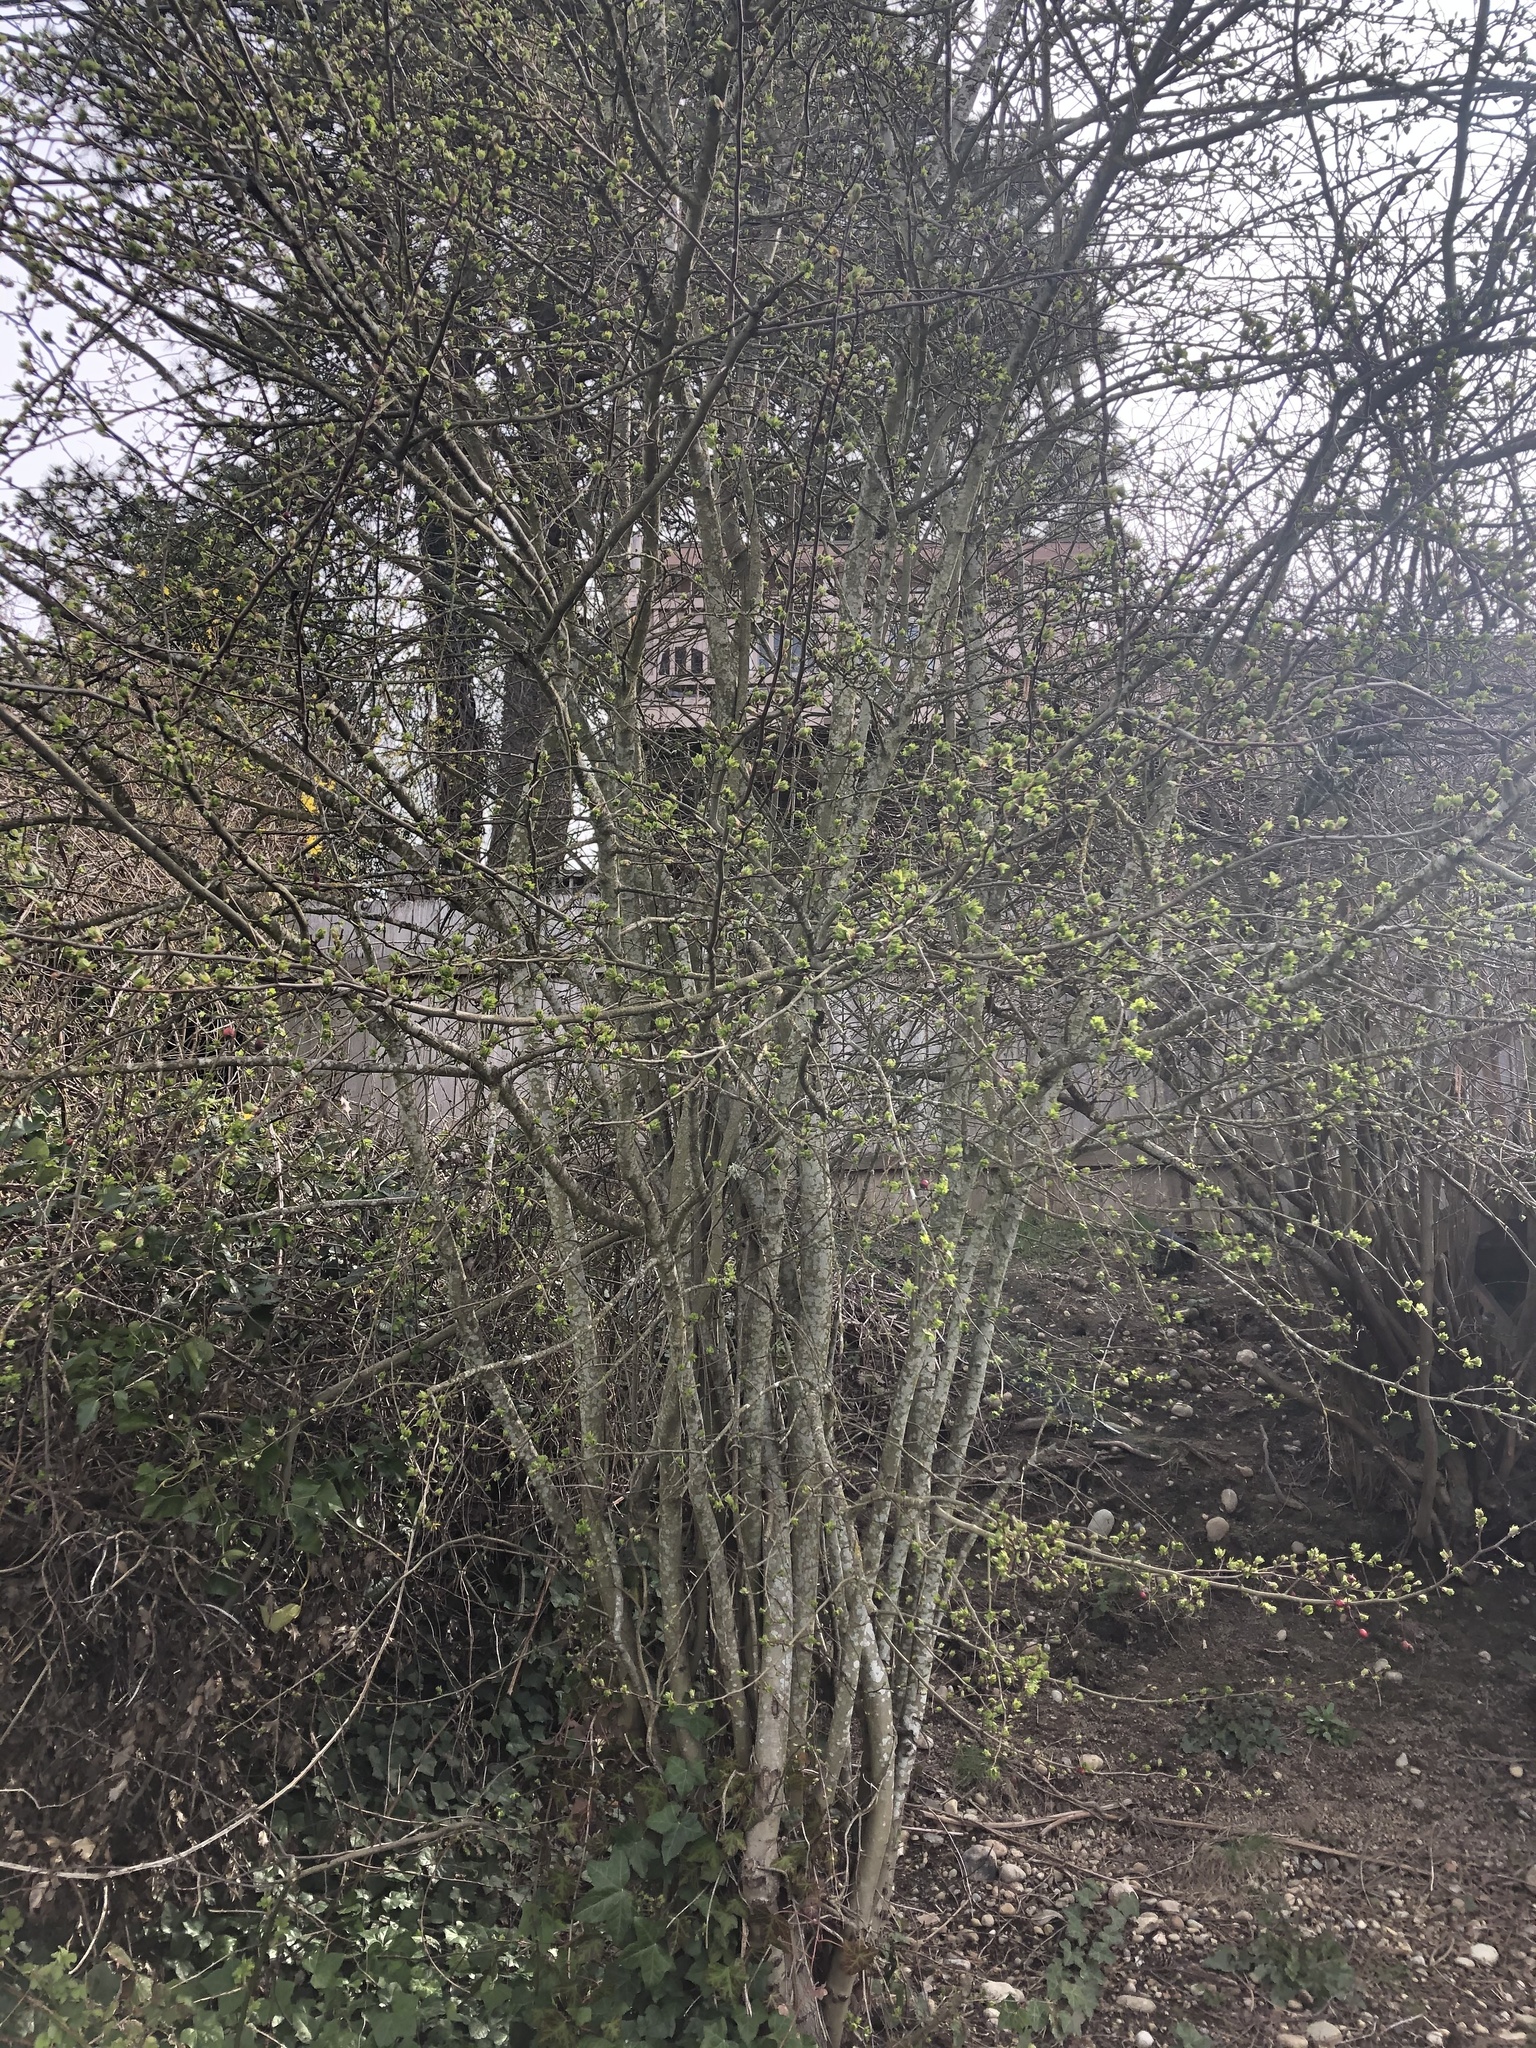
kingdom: Plantae
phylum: Tracheophyta
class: Magnoliopsida
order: Rosales
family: Rosaceae
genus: Crataegus
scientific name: Crataegus monogyna
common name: Hawthorn
